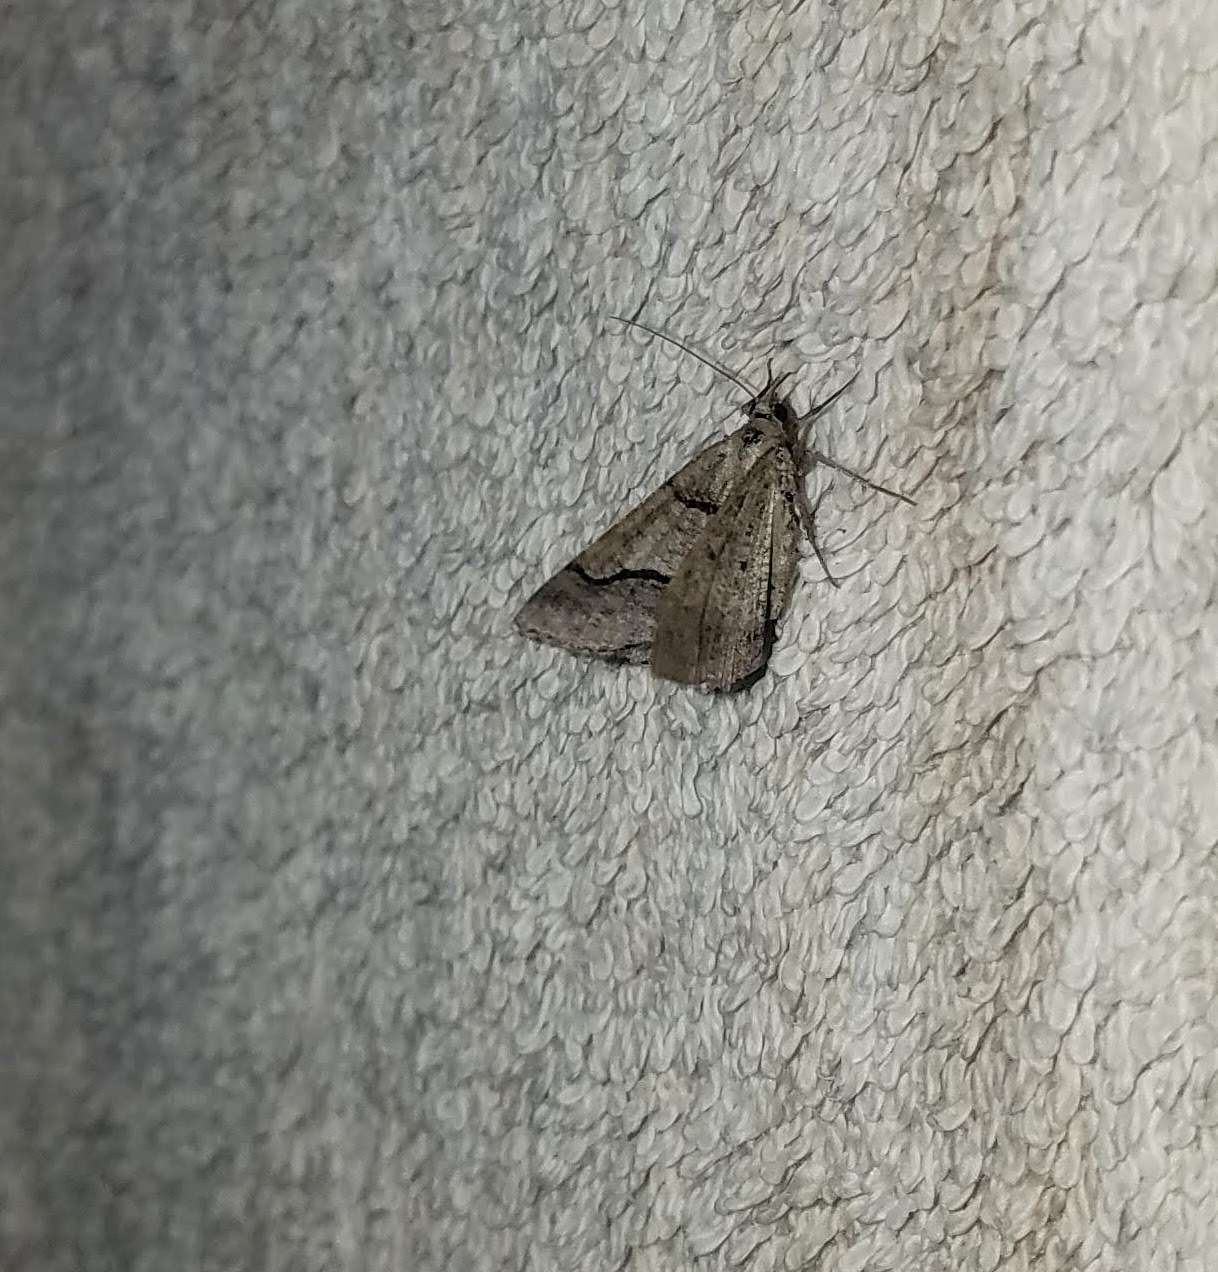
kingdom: Animalia
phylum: Arthropoda
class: Insecta
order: Lepidoptera
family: Geometridae
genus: Digrammia
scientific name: Digrammia continuata
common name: Curve-lined angle
